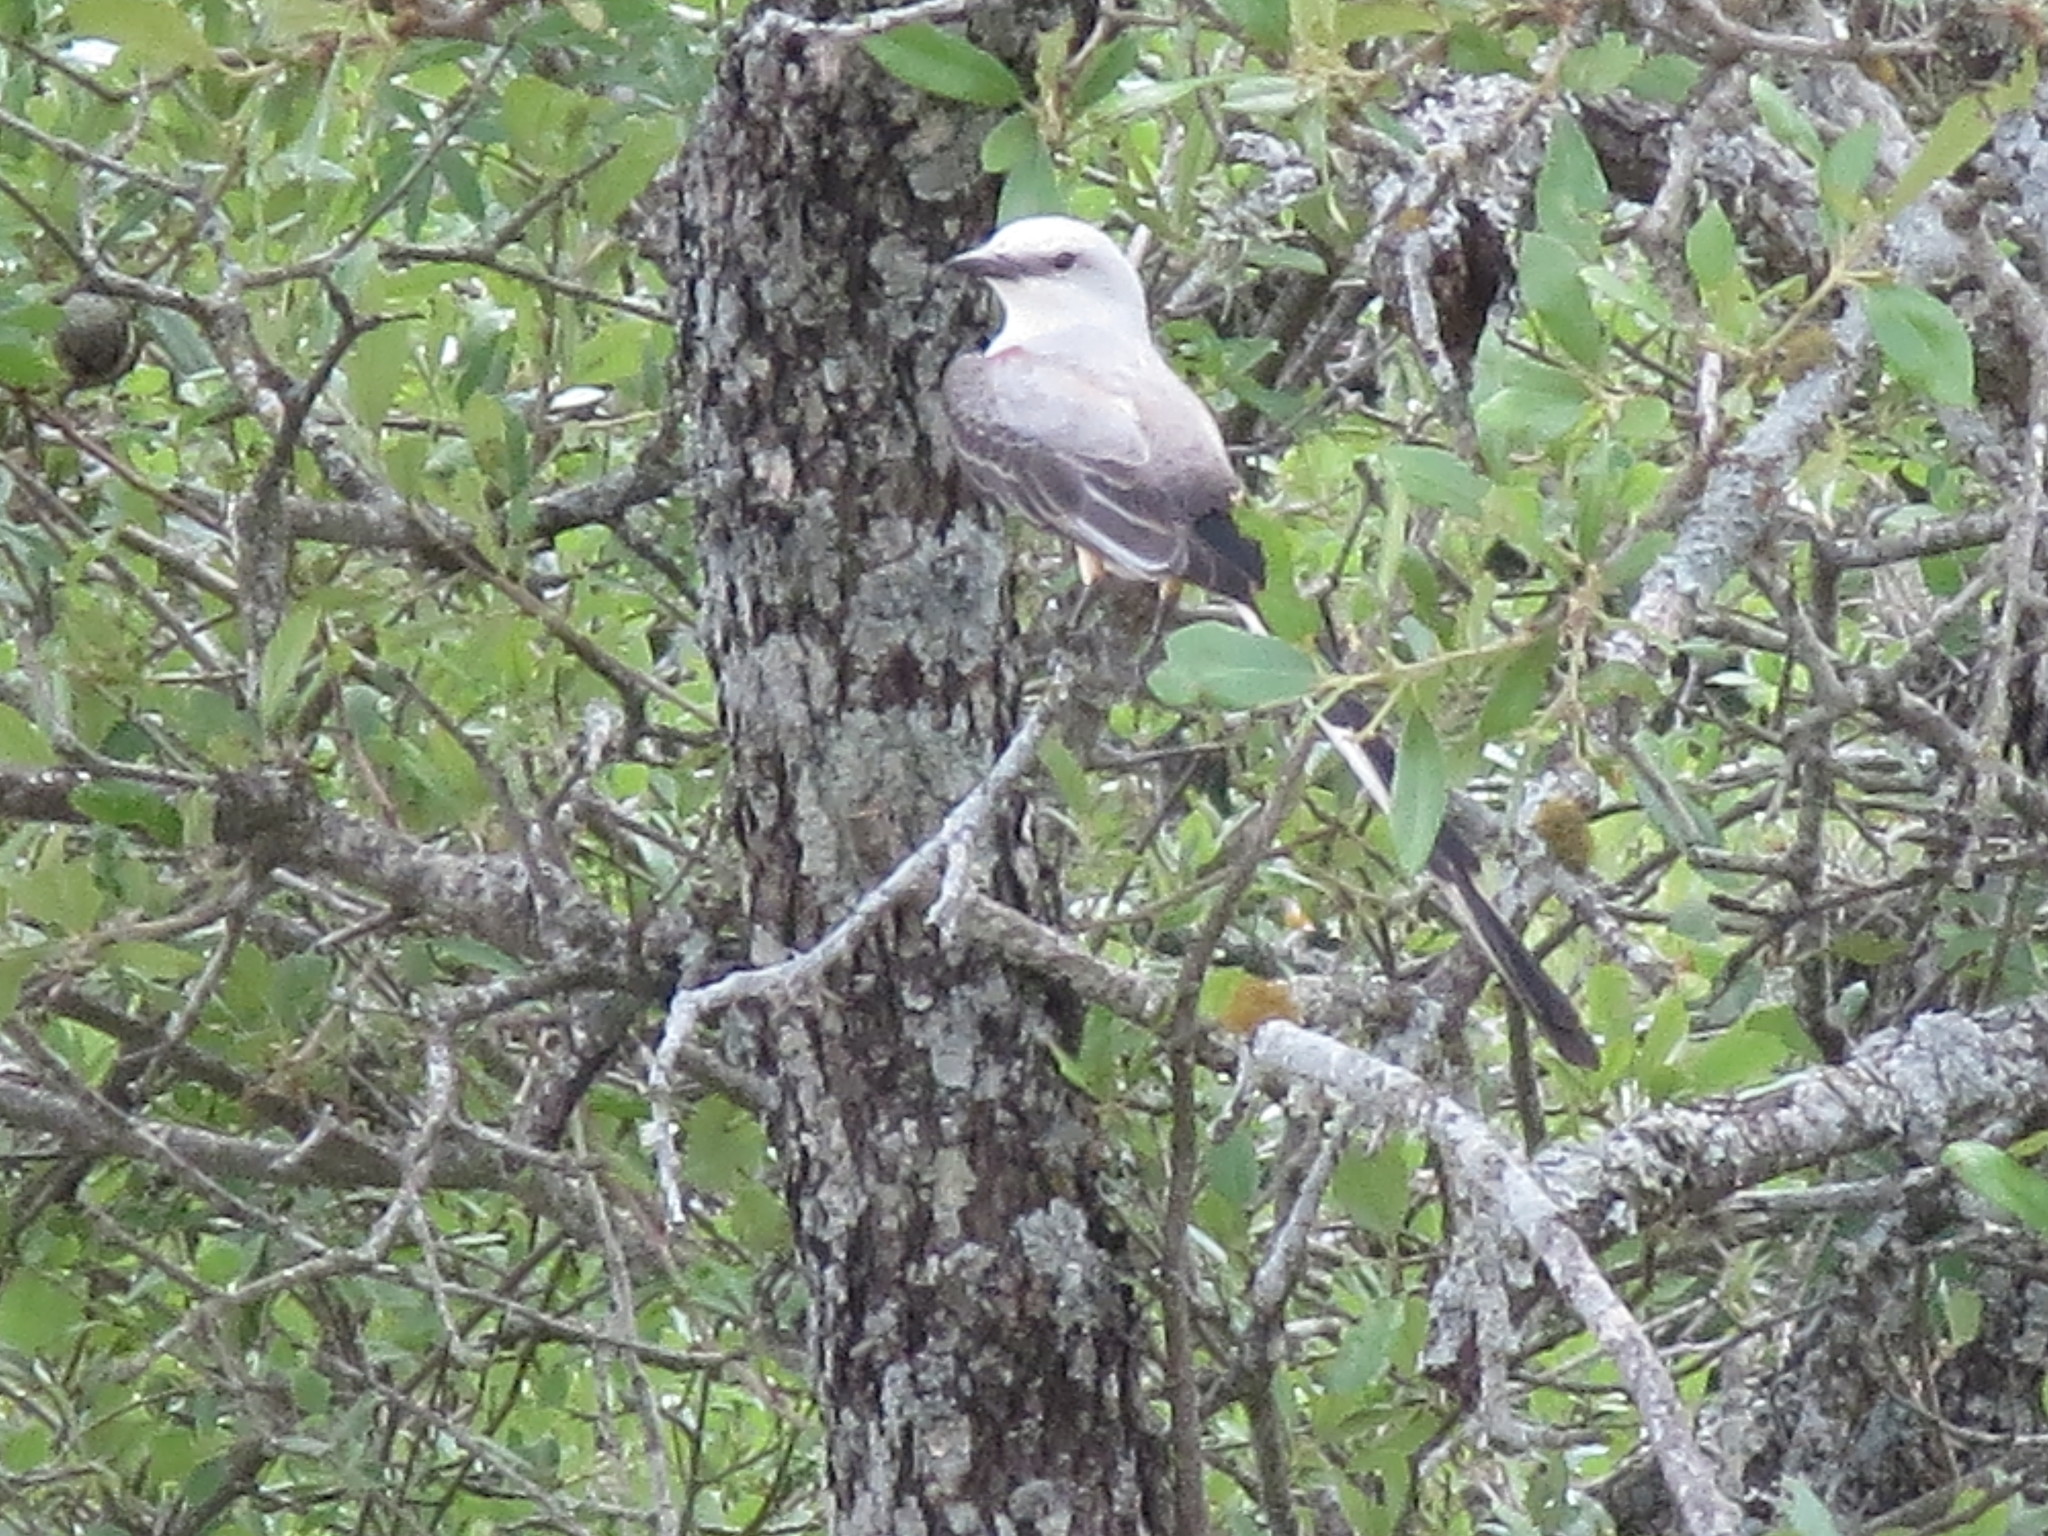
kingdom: Animalia
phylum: Chordata
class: Aves
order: Passeriformes
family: Tyrannidae
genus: Tyrannus
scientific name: Tyrannus forficatus
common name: Scissor-tailed flycatcher
